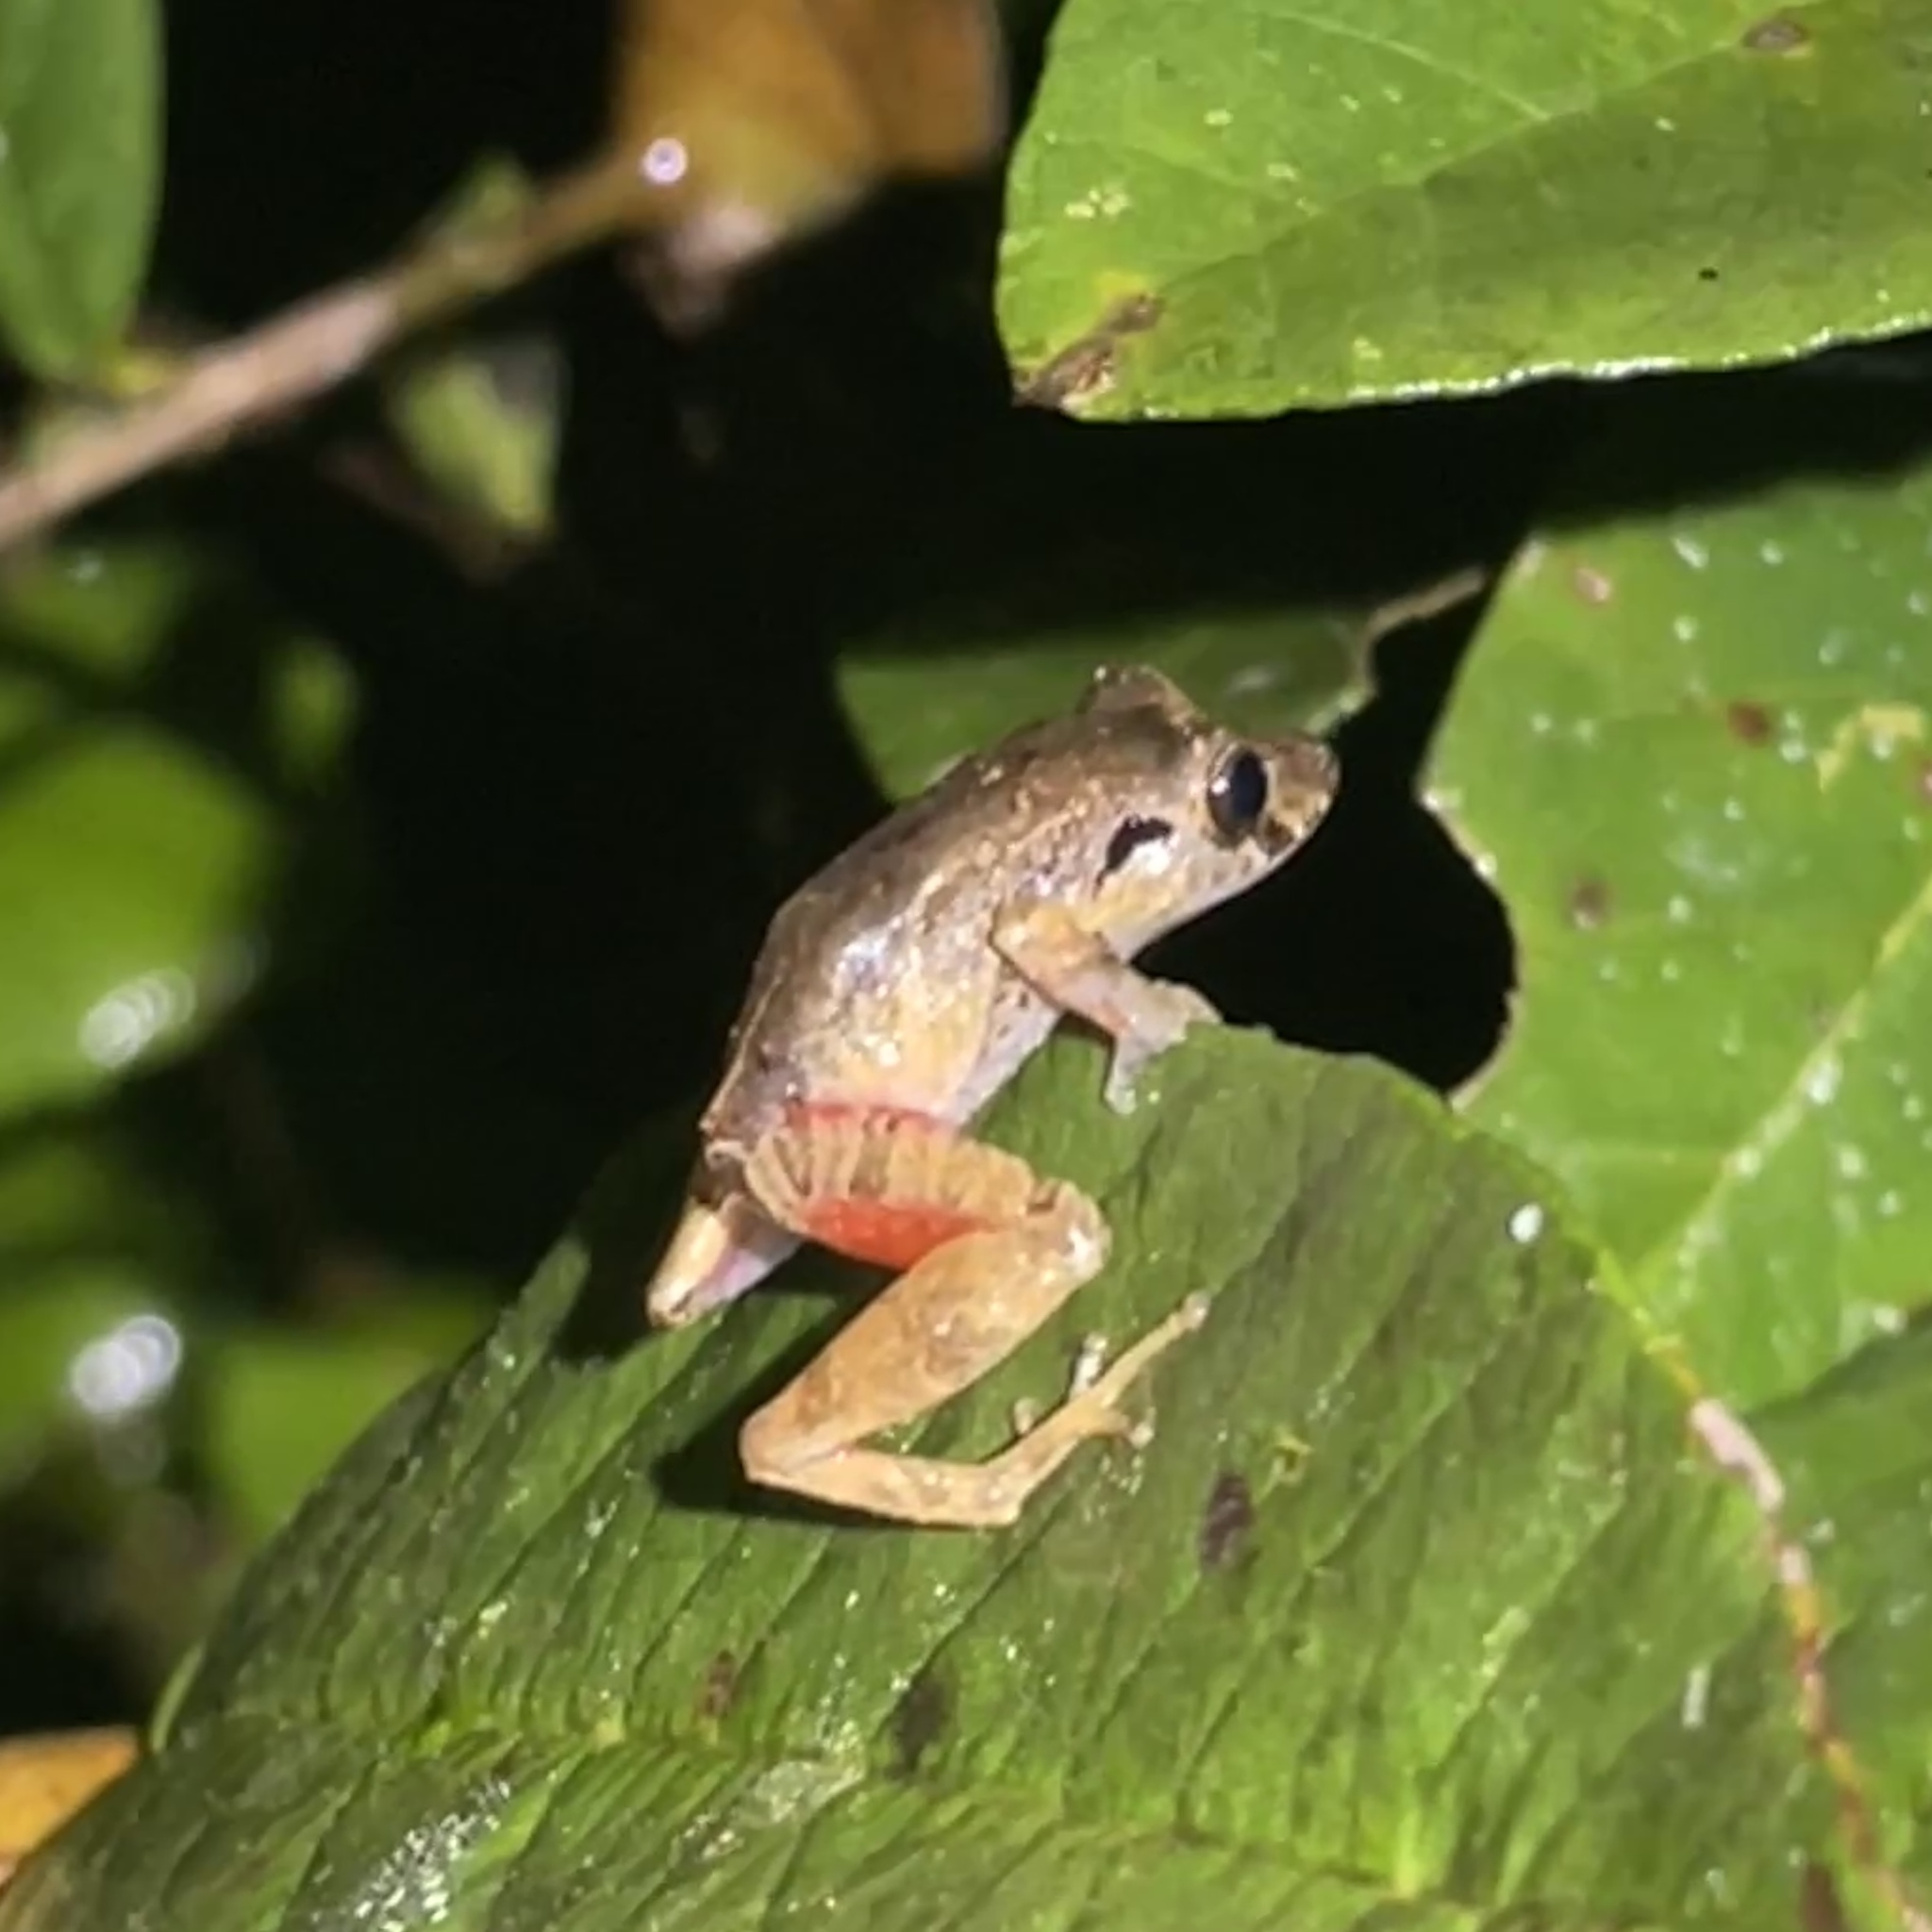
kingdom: Animalia
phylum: Chordata
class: Amphibia
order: Anura
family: Craugastoridae
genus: Pristimantis
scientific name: Pristimantis urichi
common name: Lesser antilles robber frog
